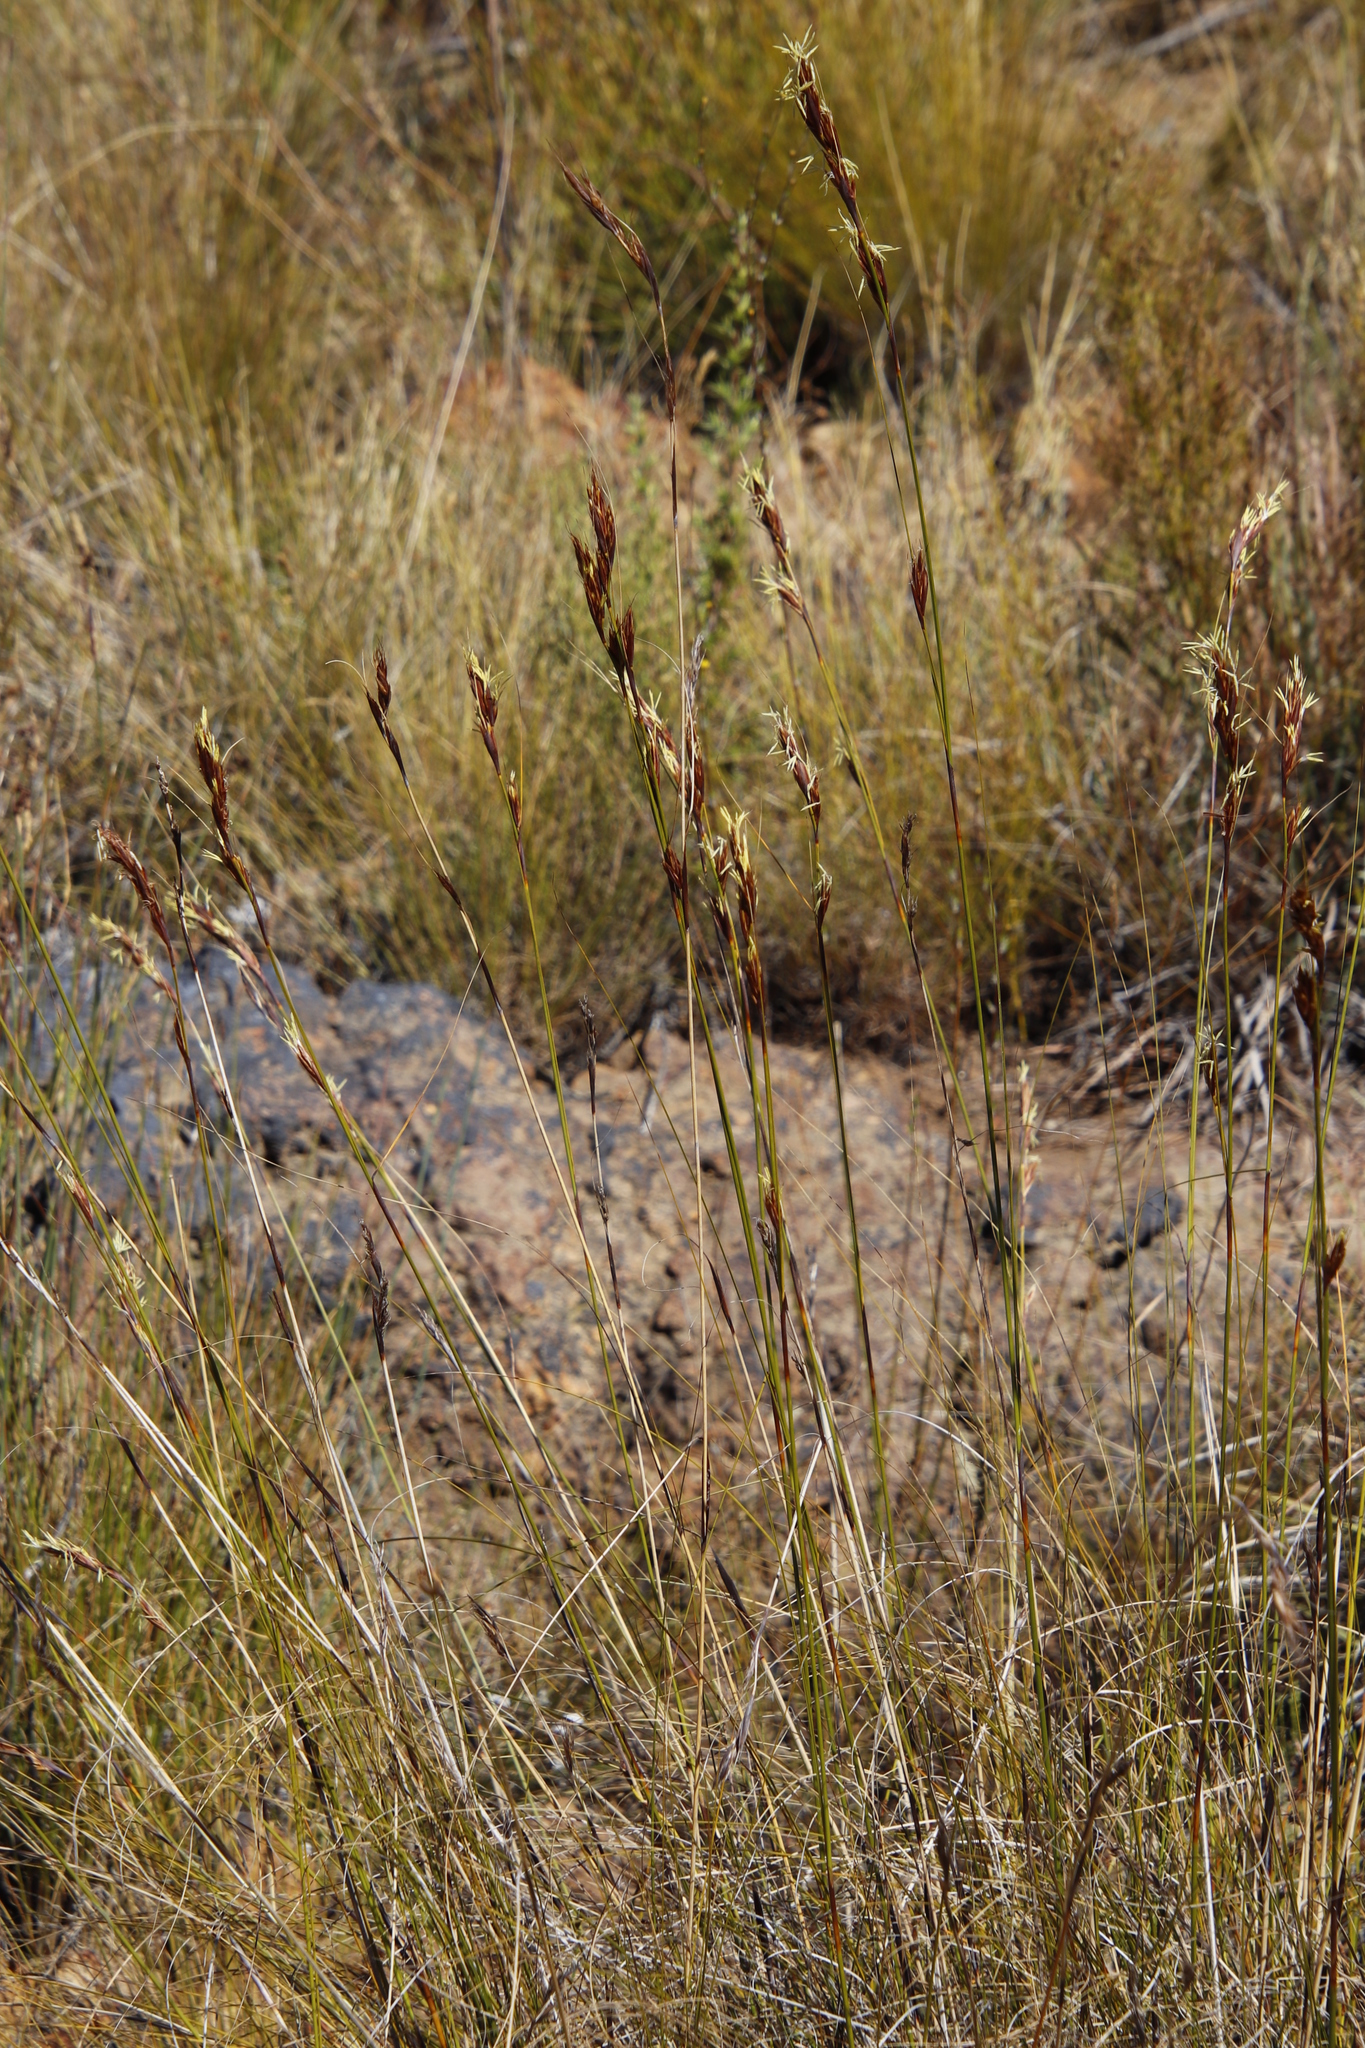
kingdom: Plantae
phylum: Tracheophyta
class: Liliopsida
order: Poales
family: Cyperaceae
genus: Tetraria
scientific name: Tetraria ustulata
